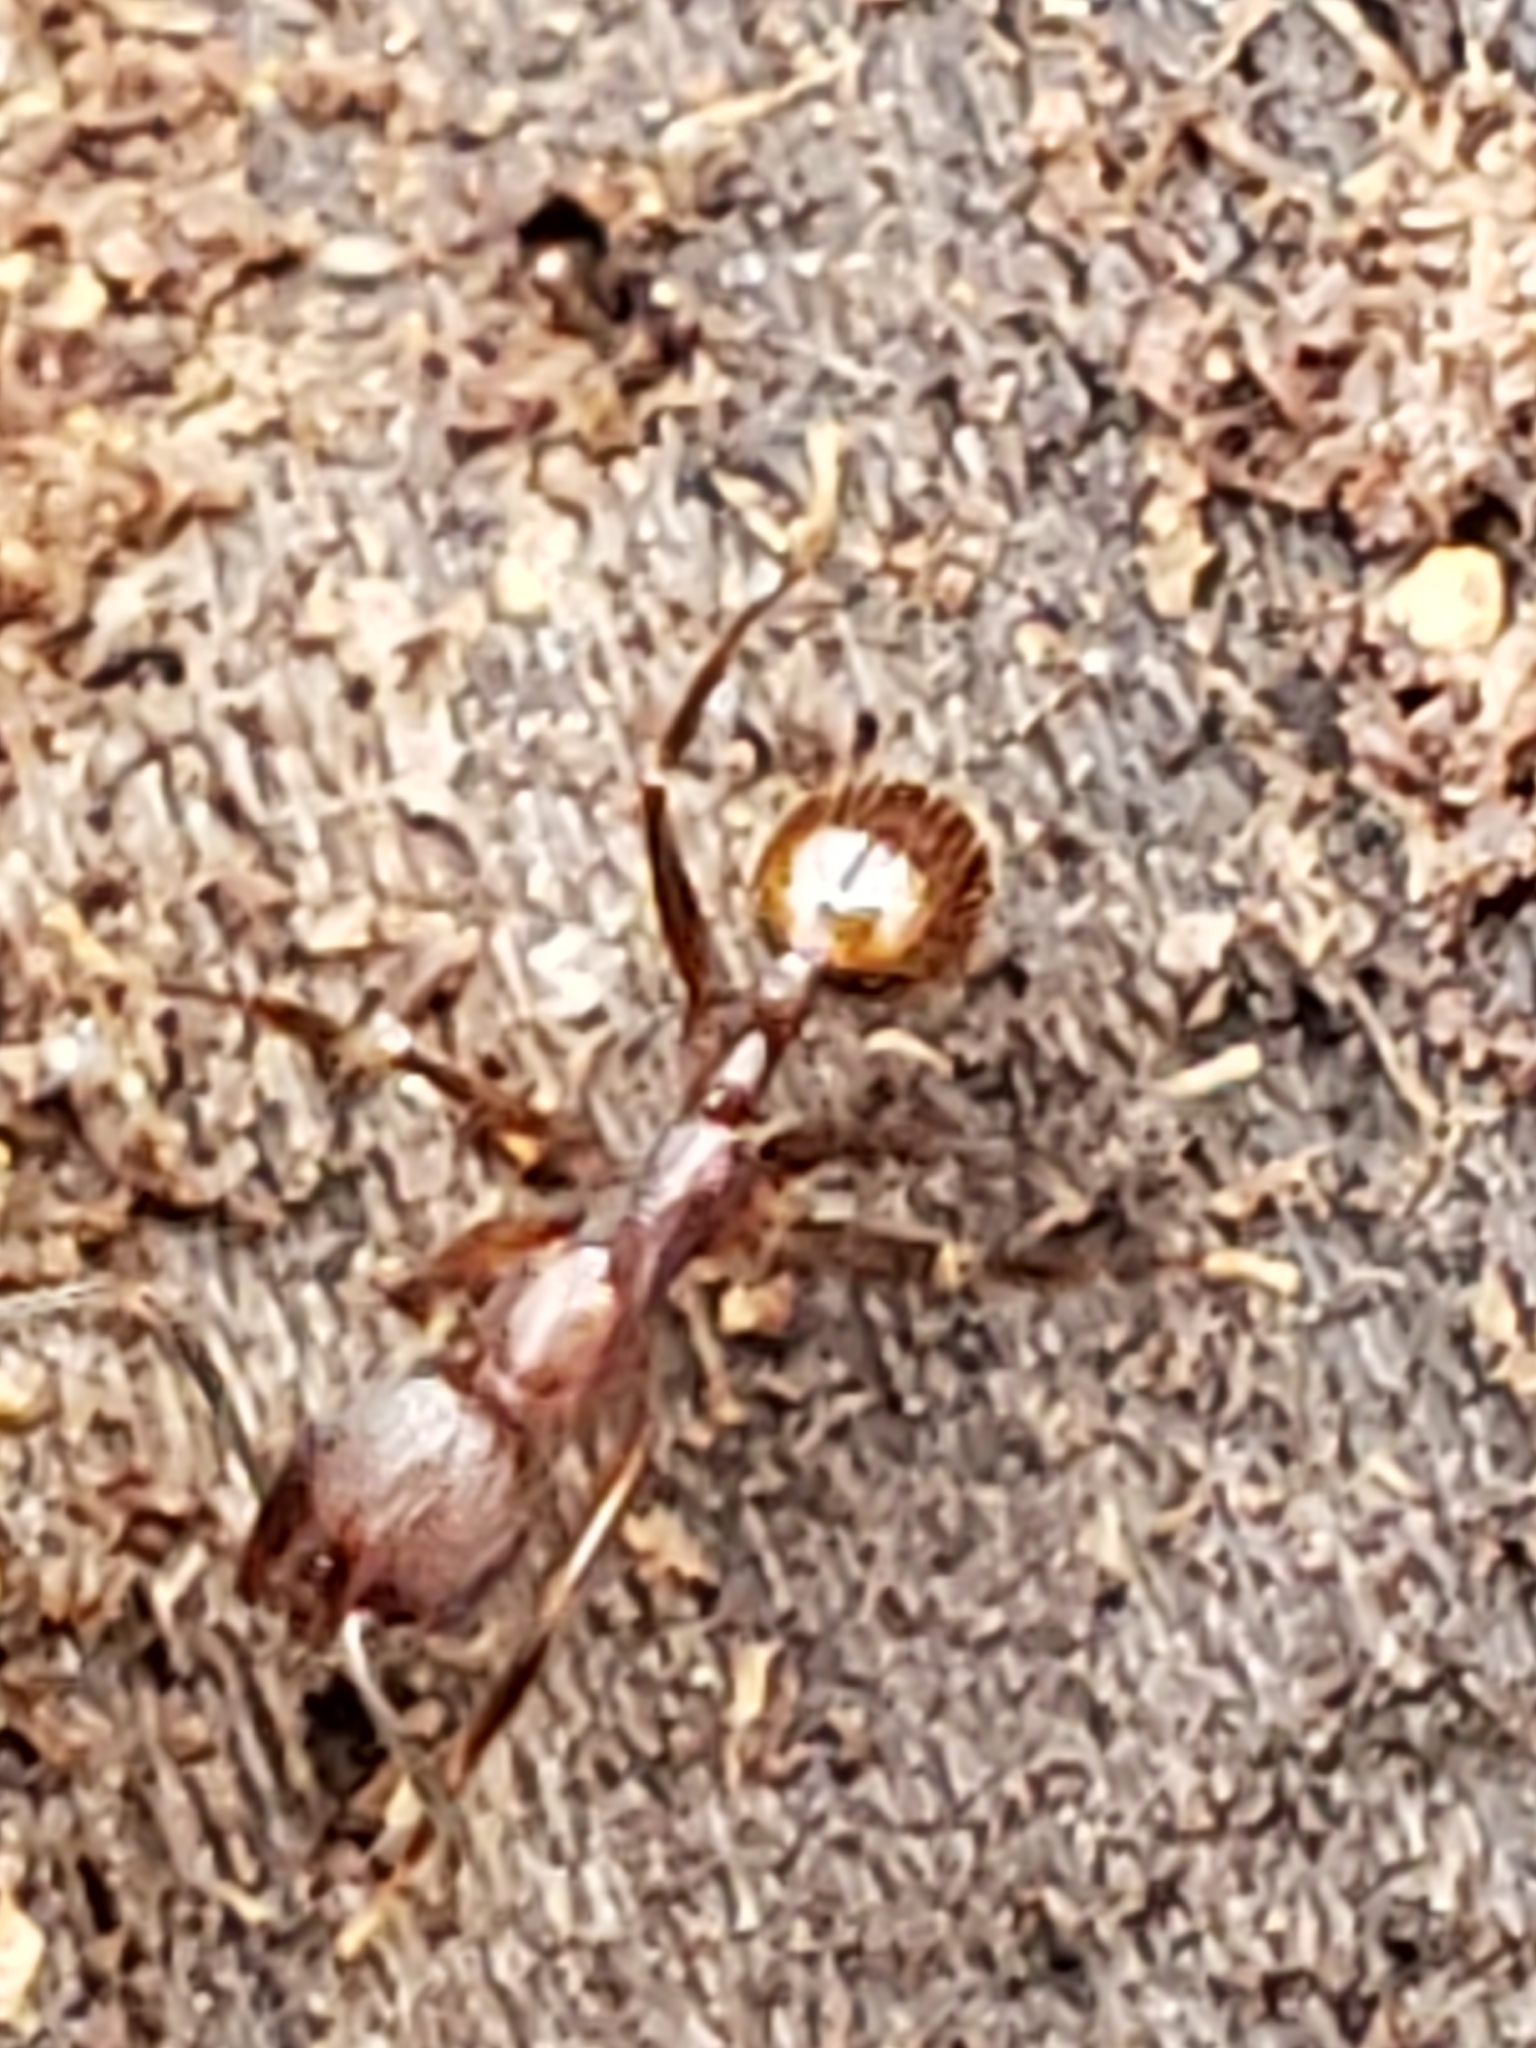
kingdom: Animalia
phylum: Arthropoda
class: Insecta
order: Hymenoptera
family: Formicidae
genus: Aphaenogaster
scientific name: Aphaenogaster fulva
